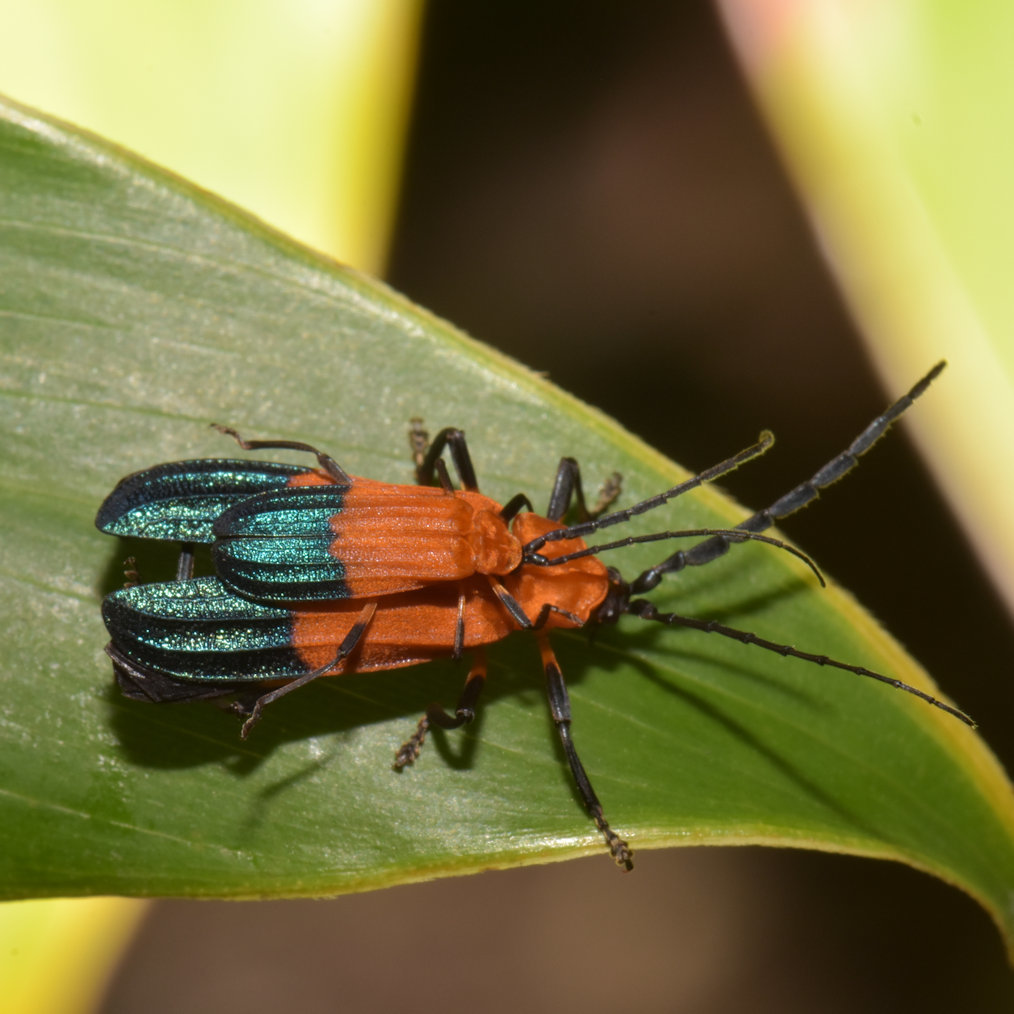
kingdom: Animalia
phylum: Arthropoda
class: Insecta
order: Coleoptera
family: Lycidae
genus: Thonalmus
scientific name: Thonalmus
